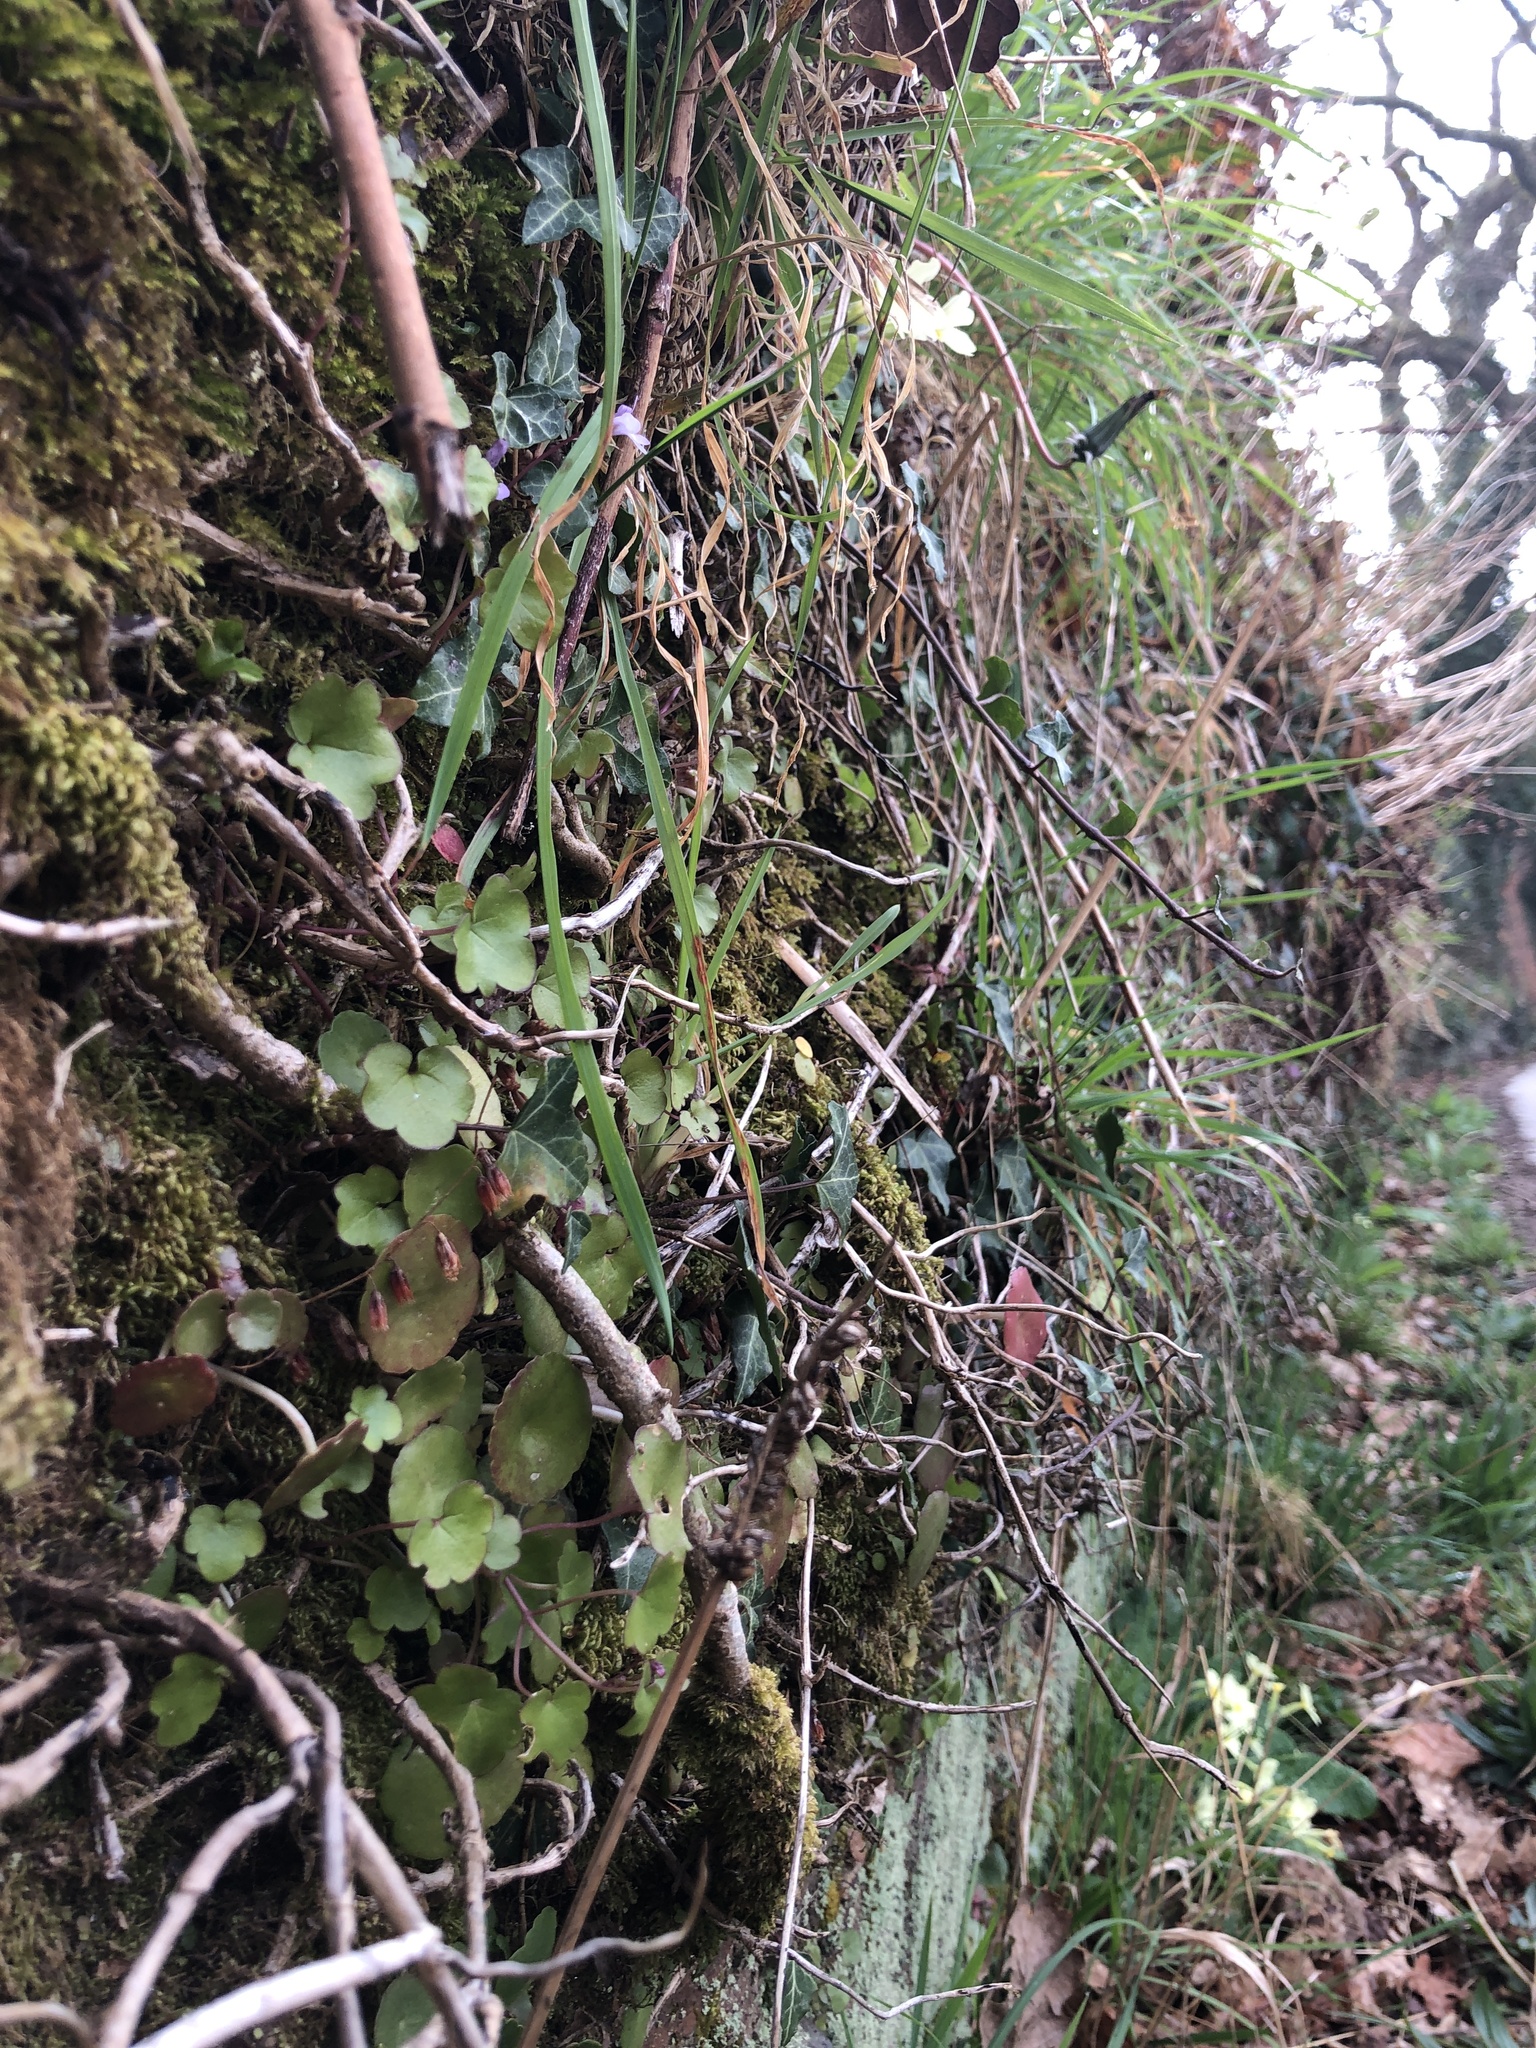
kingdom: Plantae
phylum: Bryophyta
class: Bryopsida
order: Hypnales
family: Neckeraceae
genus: Homalia
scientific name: Homalia trichomanoides
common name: Lime homalia moss
